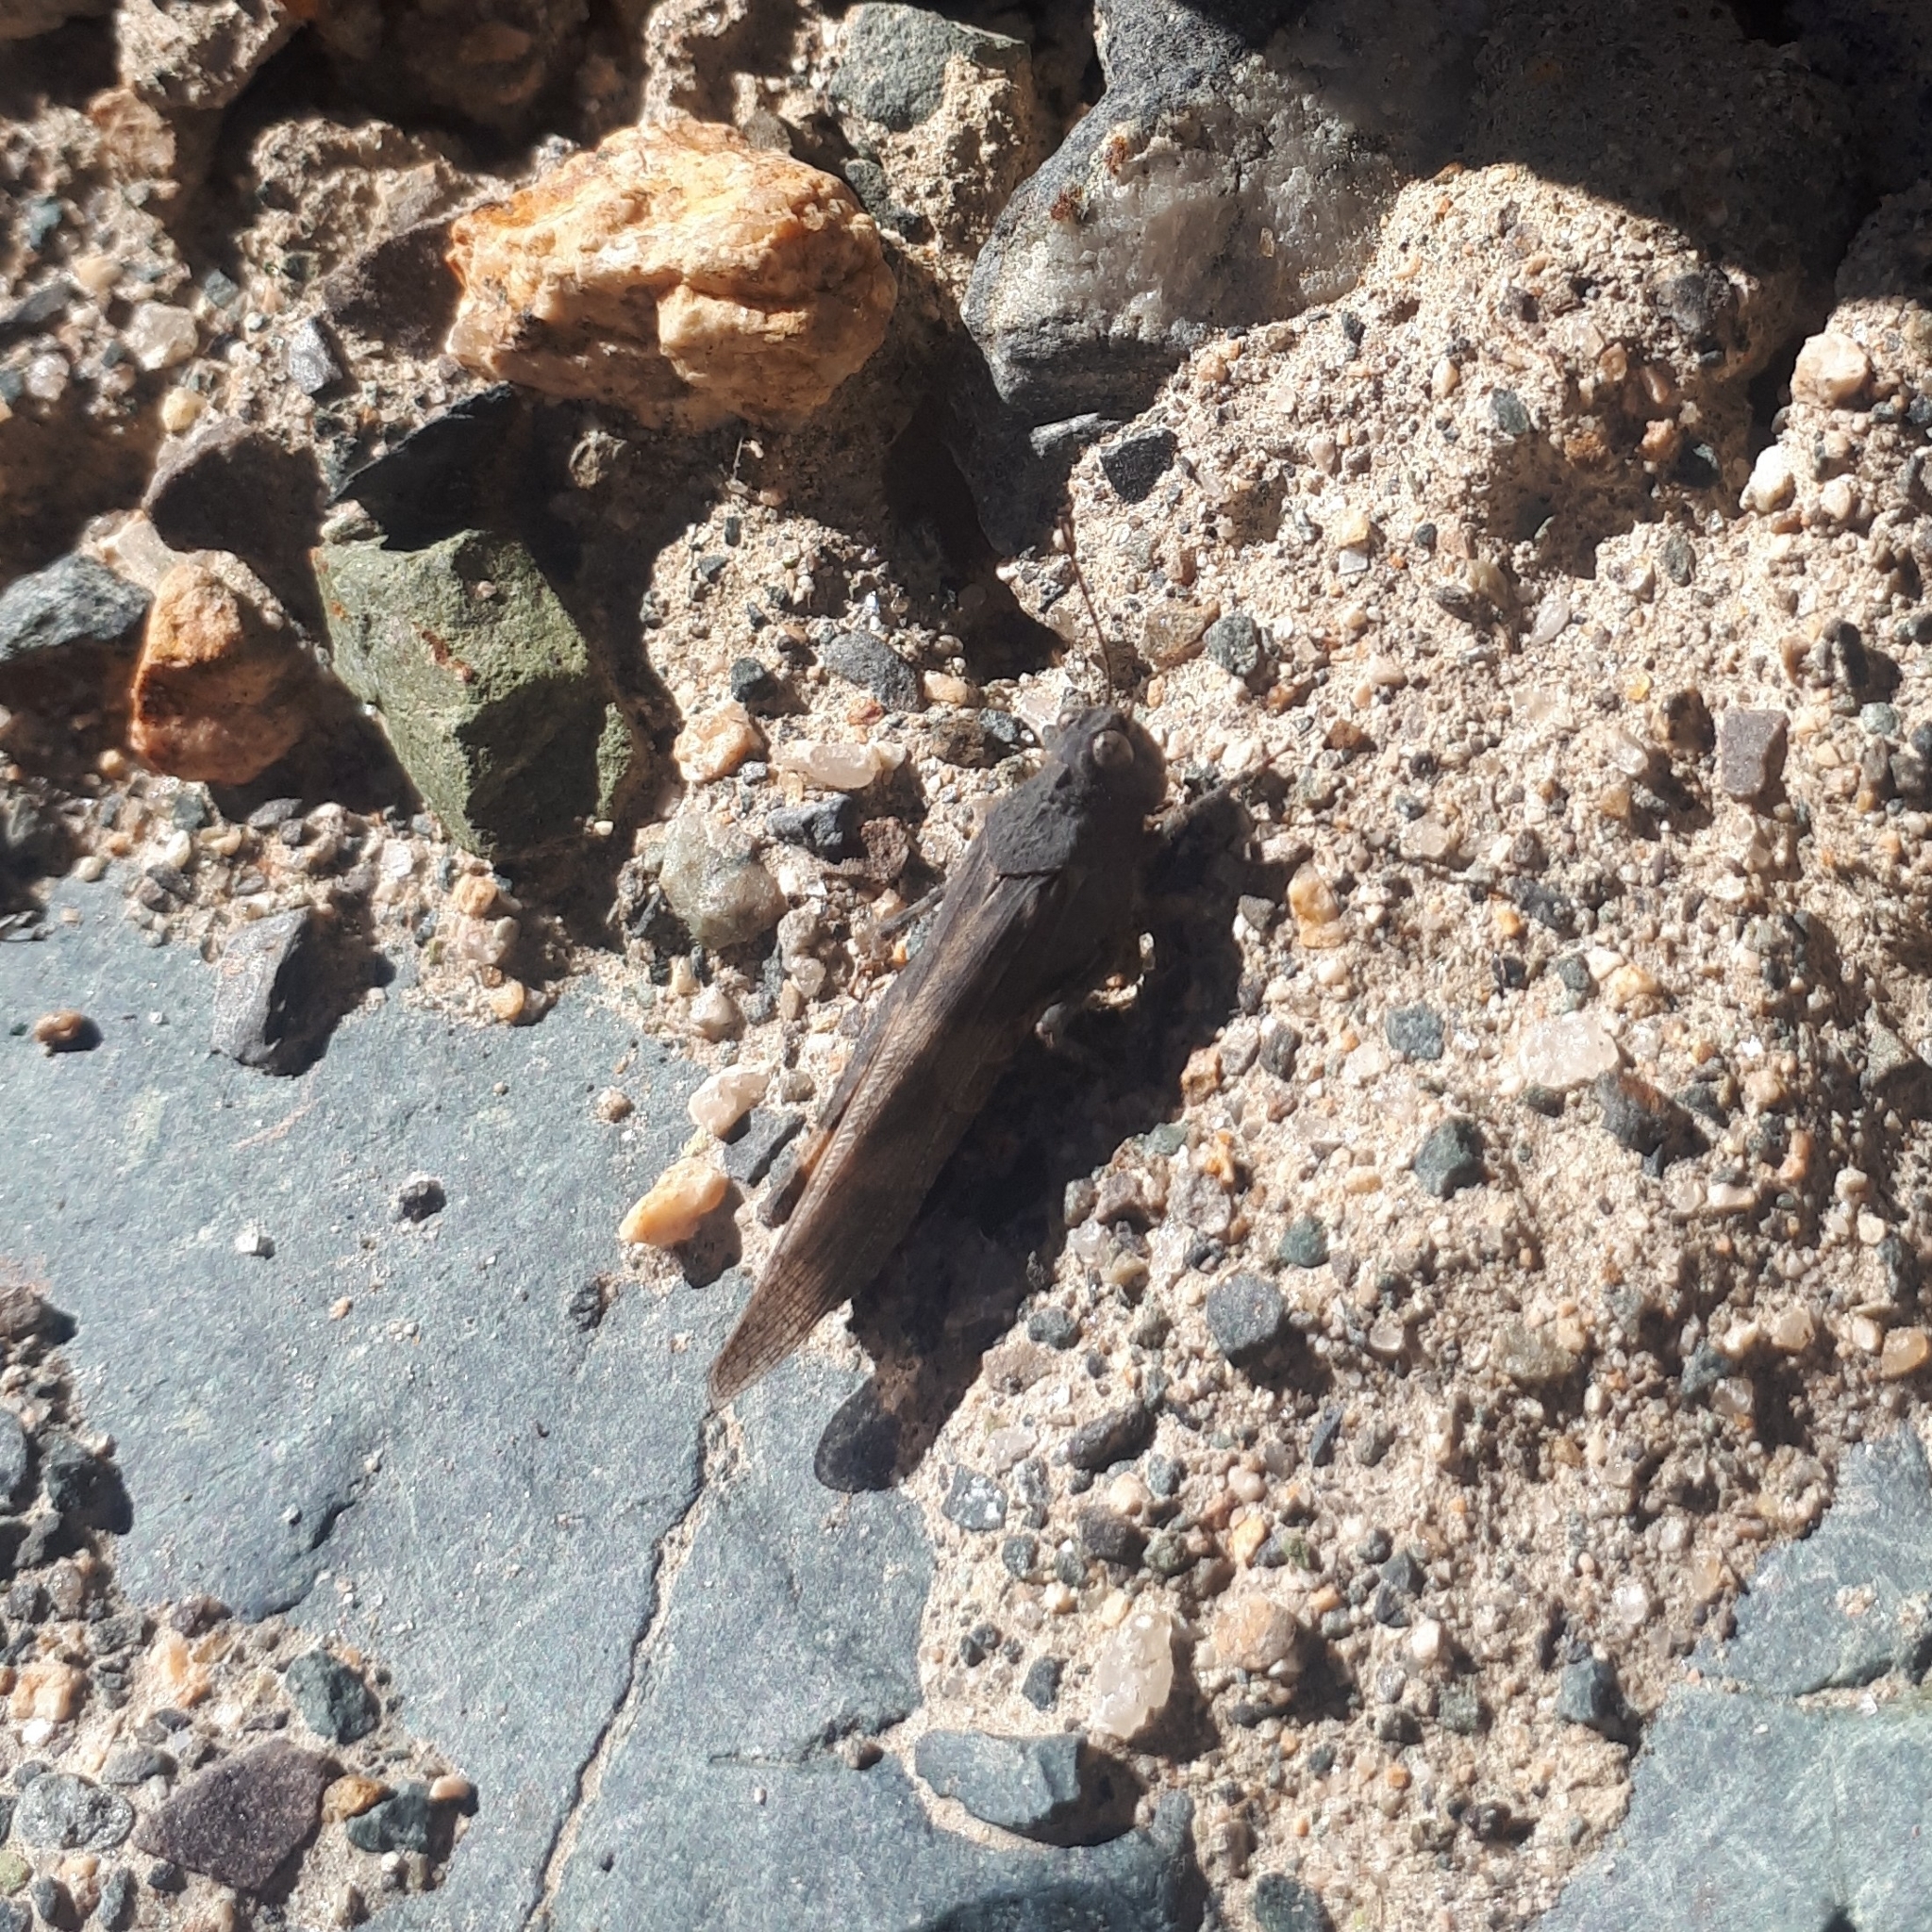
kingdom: Animalia
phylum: Arthropoda
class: Insecta
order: Orthoptera
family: Acrididae
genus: Trimerotropis
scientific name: Trimerotropis pallidipennis
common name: Pallid-winged grasshopper
